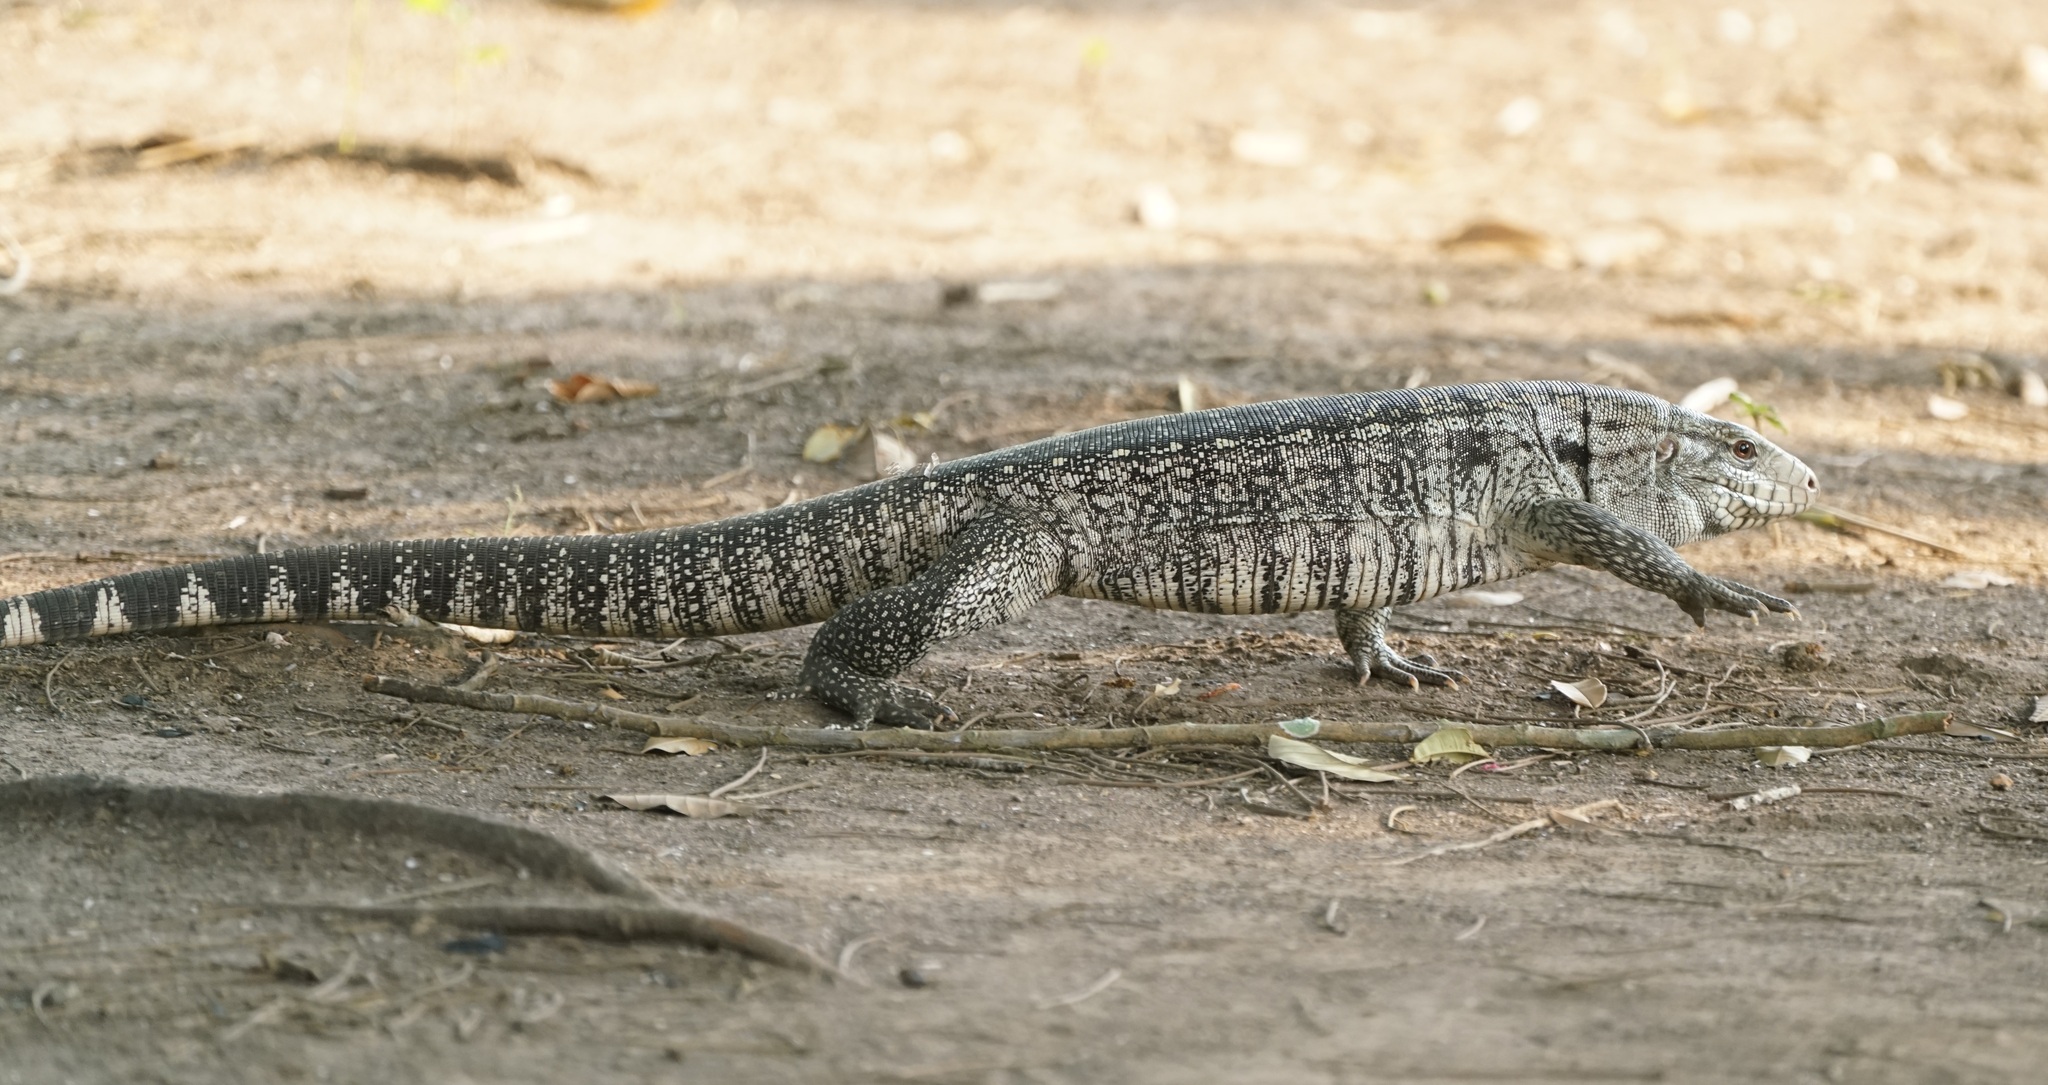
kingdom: Animalia
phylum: Chordata
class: Squamata
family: Teiidae
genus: Salvator
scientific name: Salvator merianae
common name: Argentine black and white tegu
